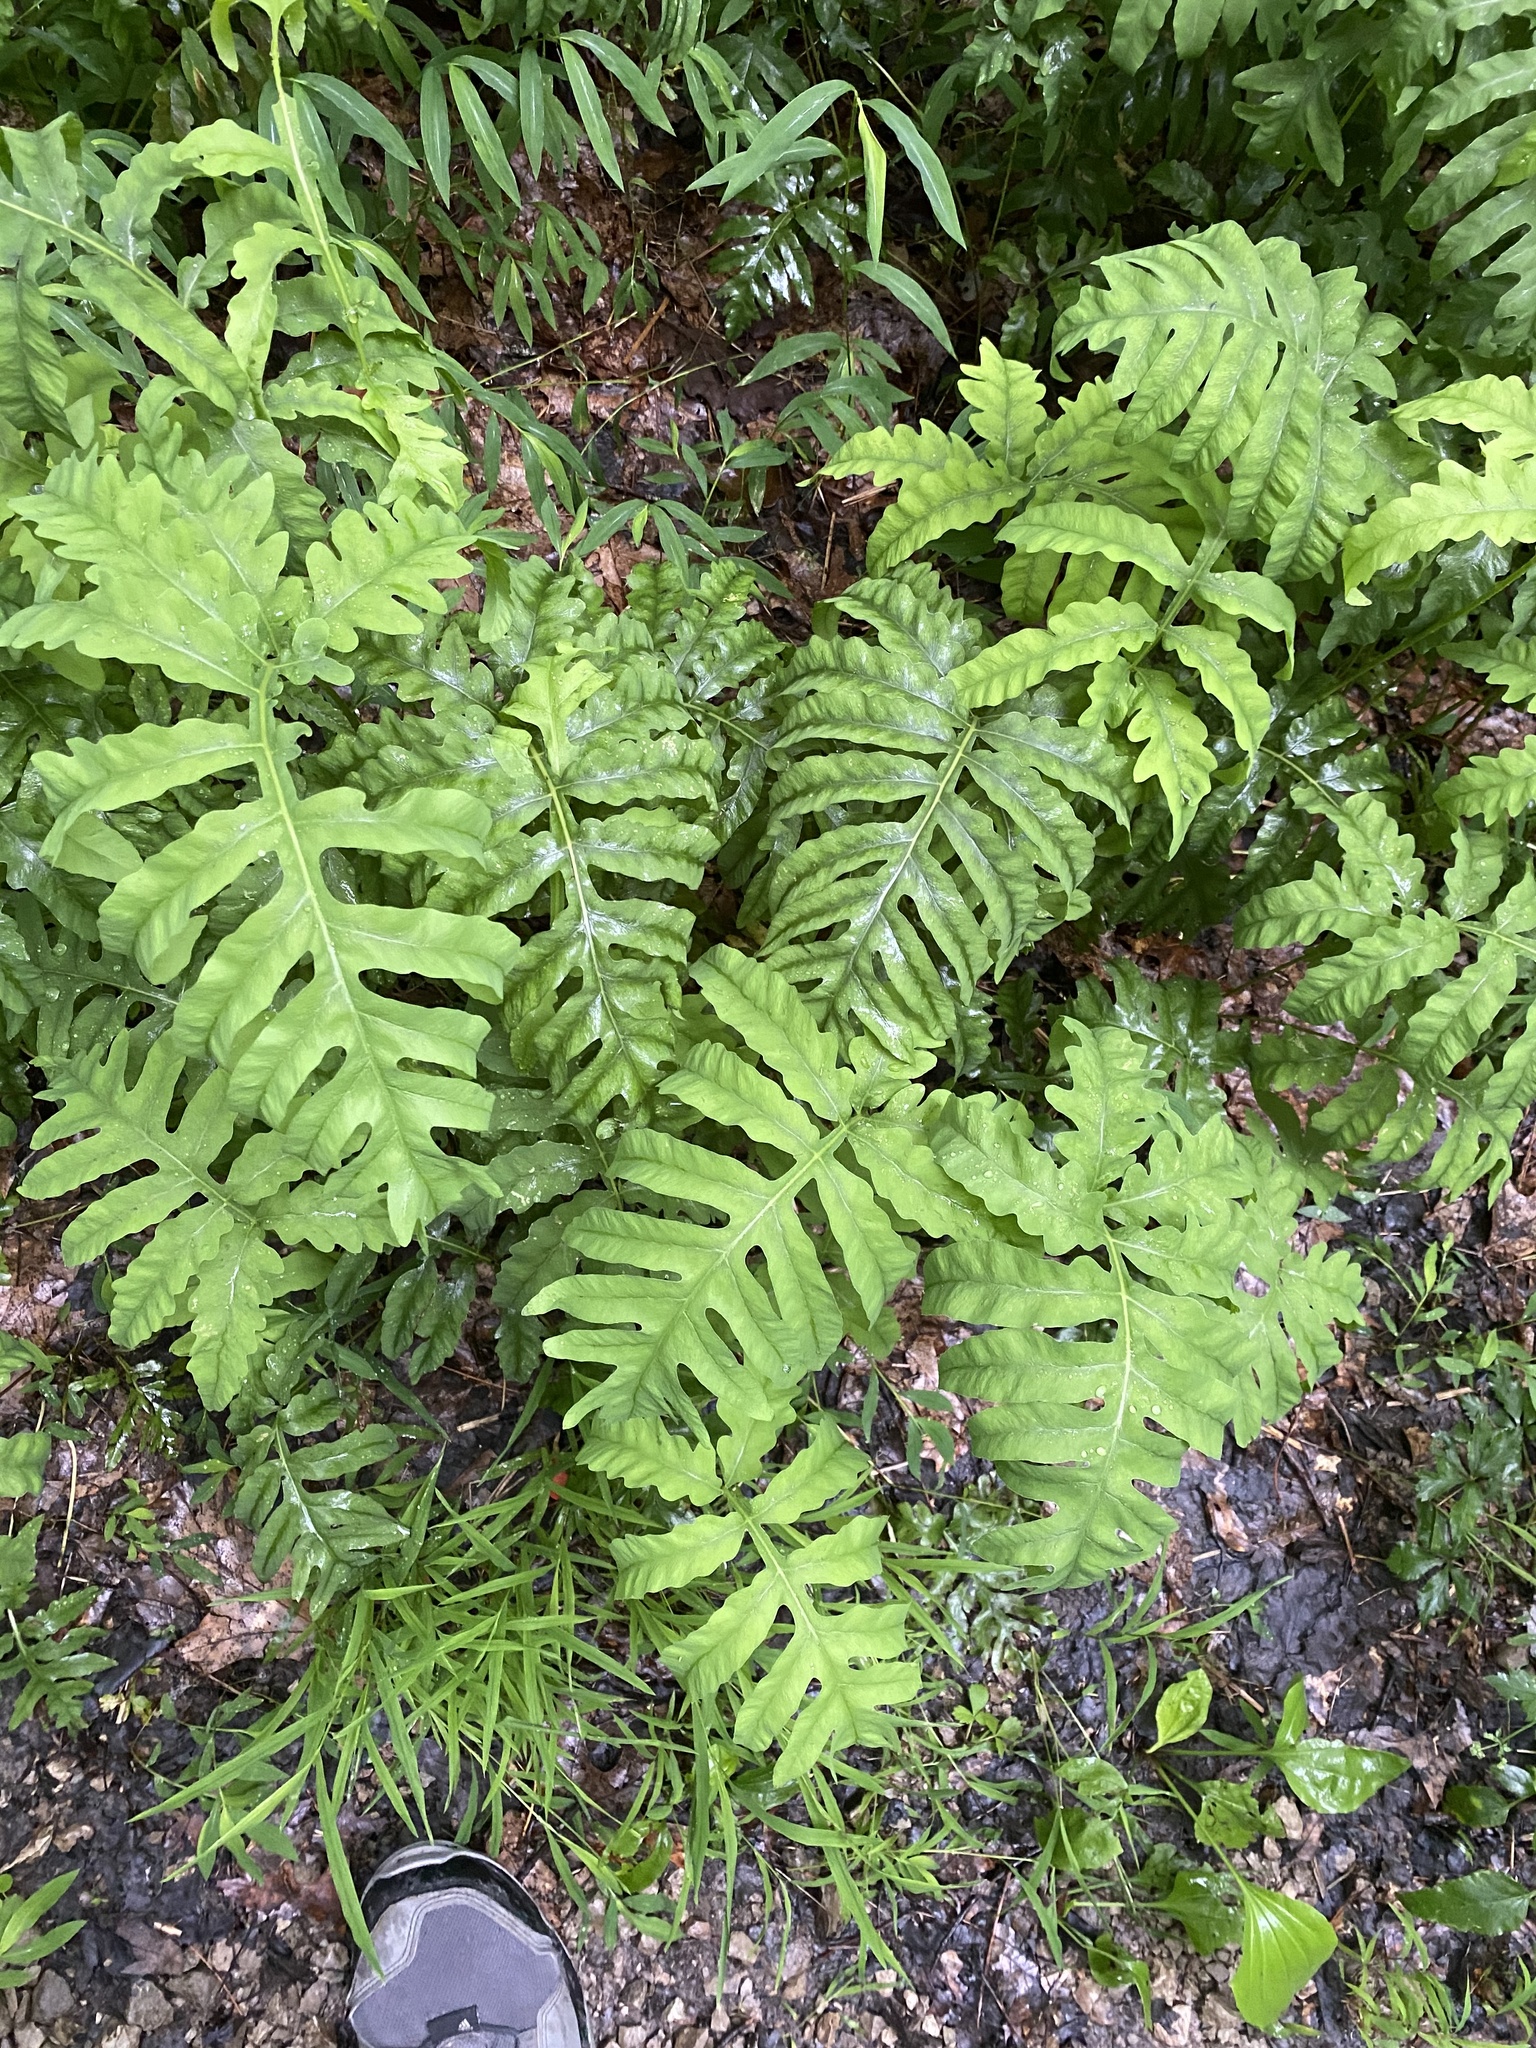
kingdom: Plantae
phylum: Tracheophyta
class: Polypodiopsida
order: Polypodiales
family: Onocleaceae
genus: Onoclea
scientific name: Onoclea sensibilis
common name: Sensitive fern
